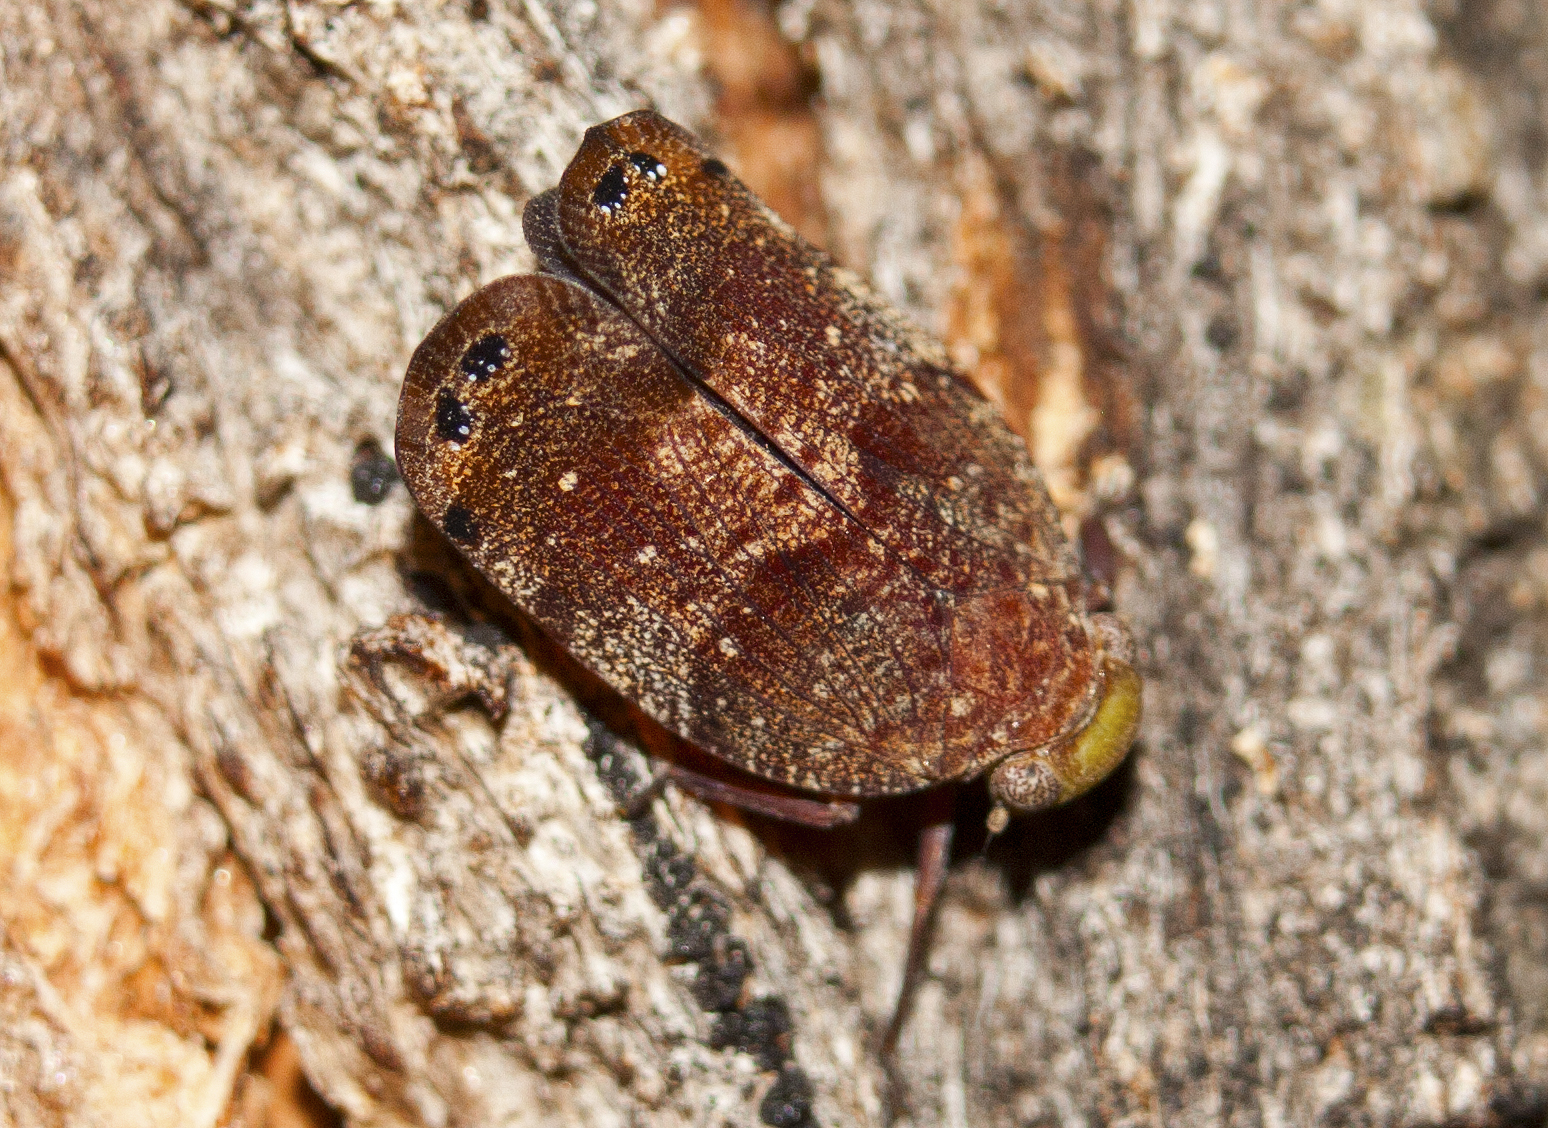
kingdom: Animalia
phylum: Arthropoda
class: Insecta
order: Hemiptera
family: Eurybrachidae
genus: Platybrachys
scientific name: Platybrachys decemmacula
